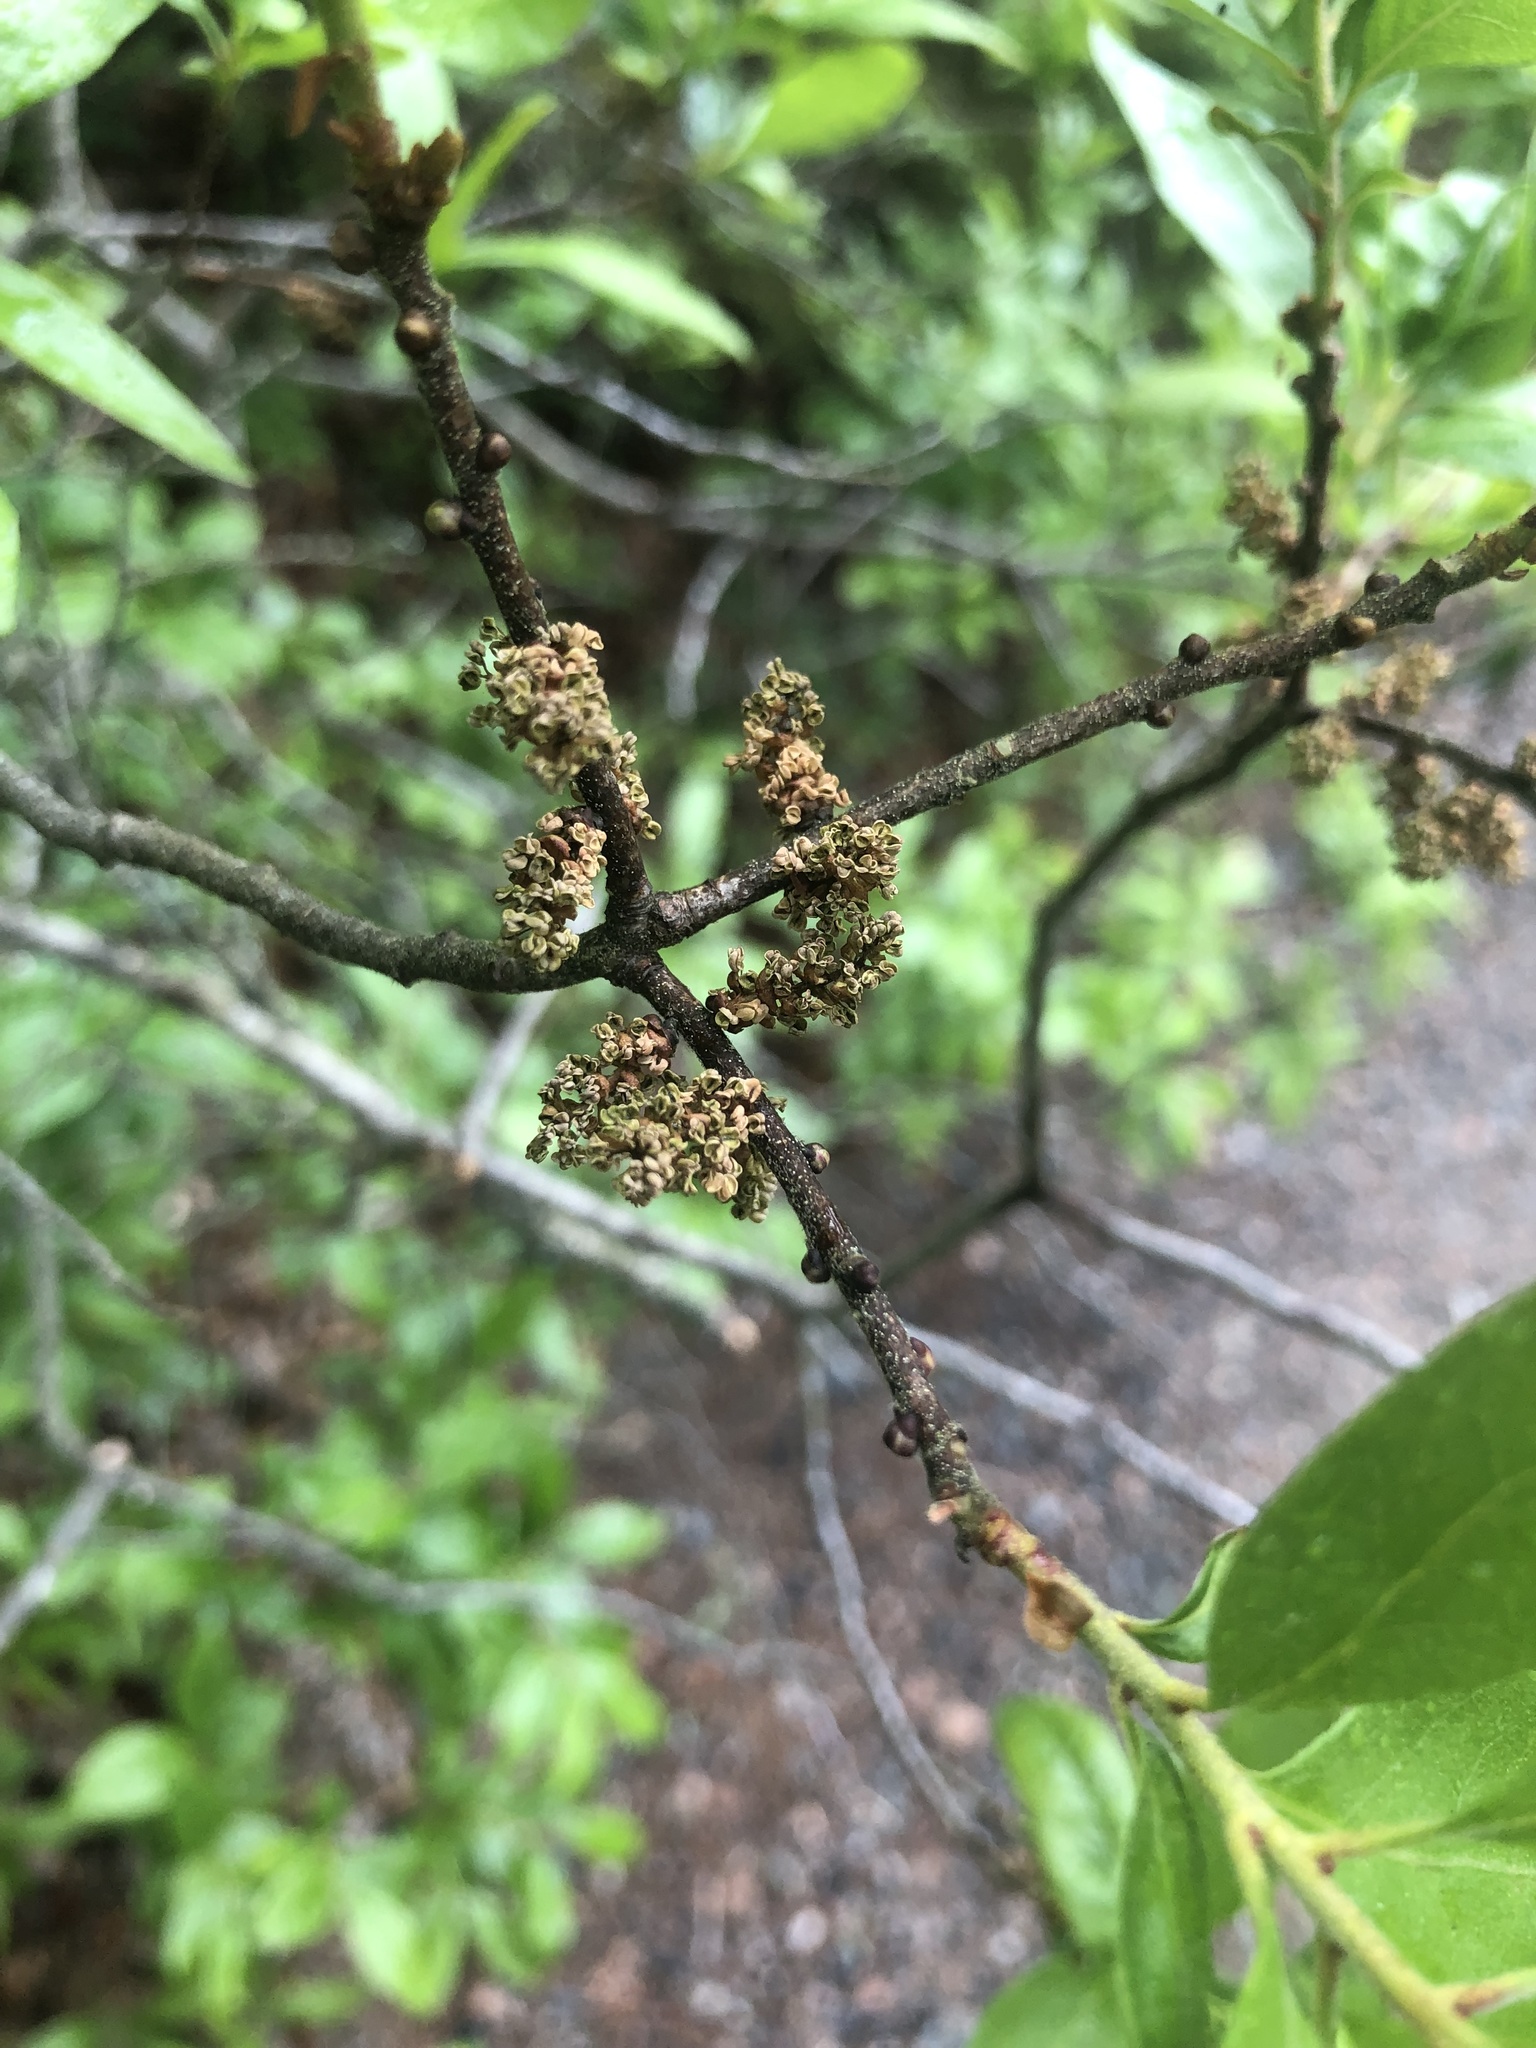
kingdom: Plantae
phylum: Tracheophyta
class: Magnoliopsida
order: Fagales
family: Myricaceae
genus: Morella
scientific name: Morella pensylvanica
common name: Northern bayberry
